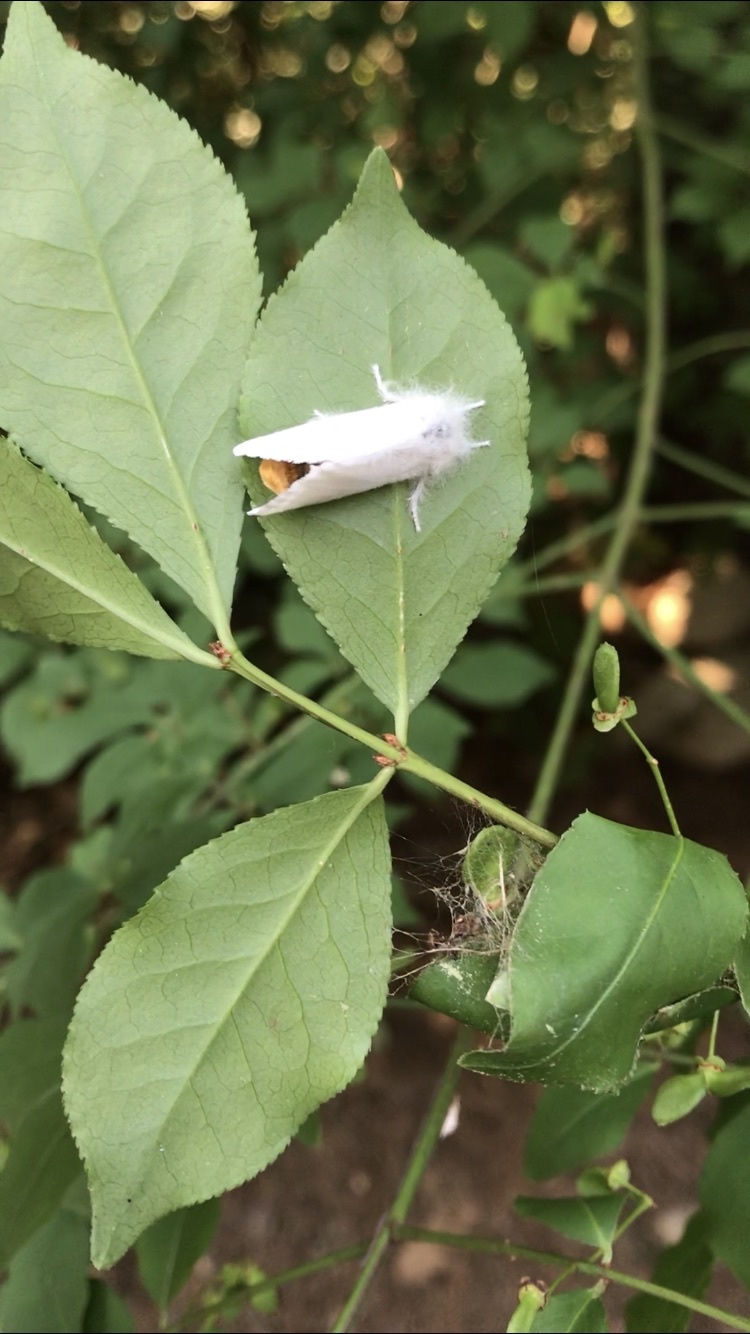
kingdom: Animalia
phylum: Arthropoda
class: Insecta
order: Lepidoptera
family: Erebidae
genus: Euproctis
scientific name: Euproctis chrysorrhoea
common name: Brown-tail
